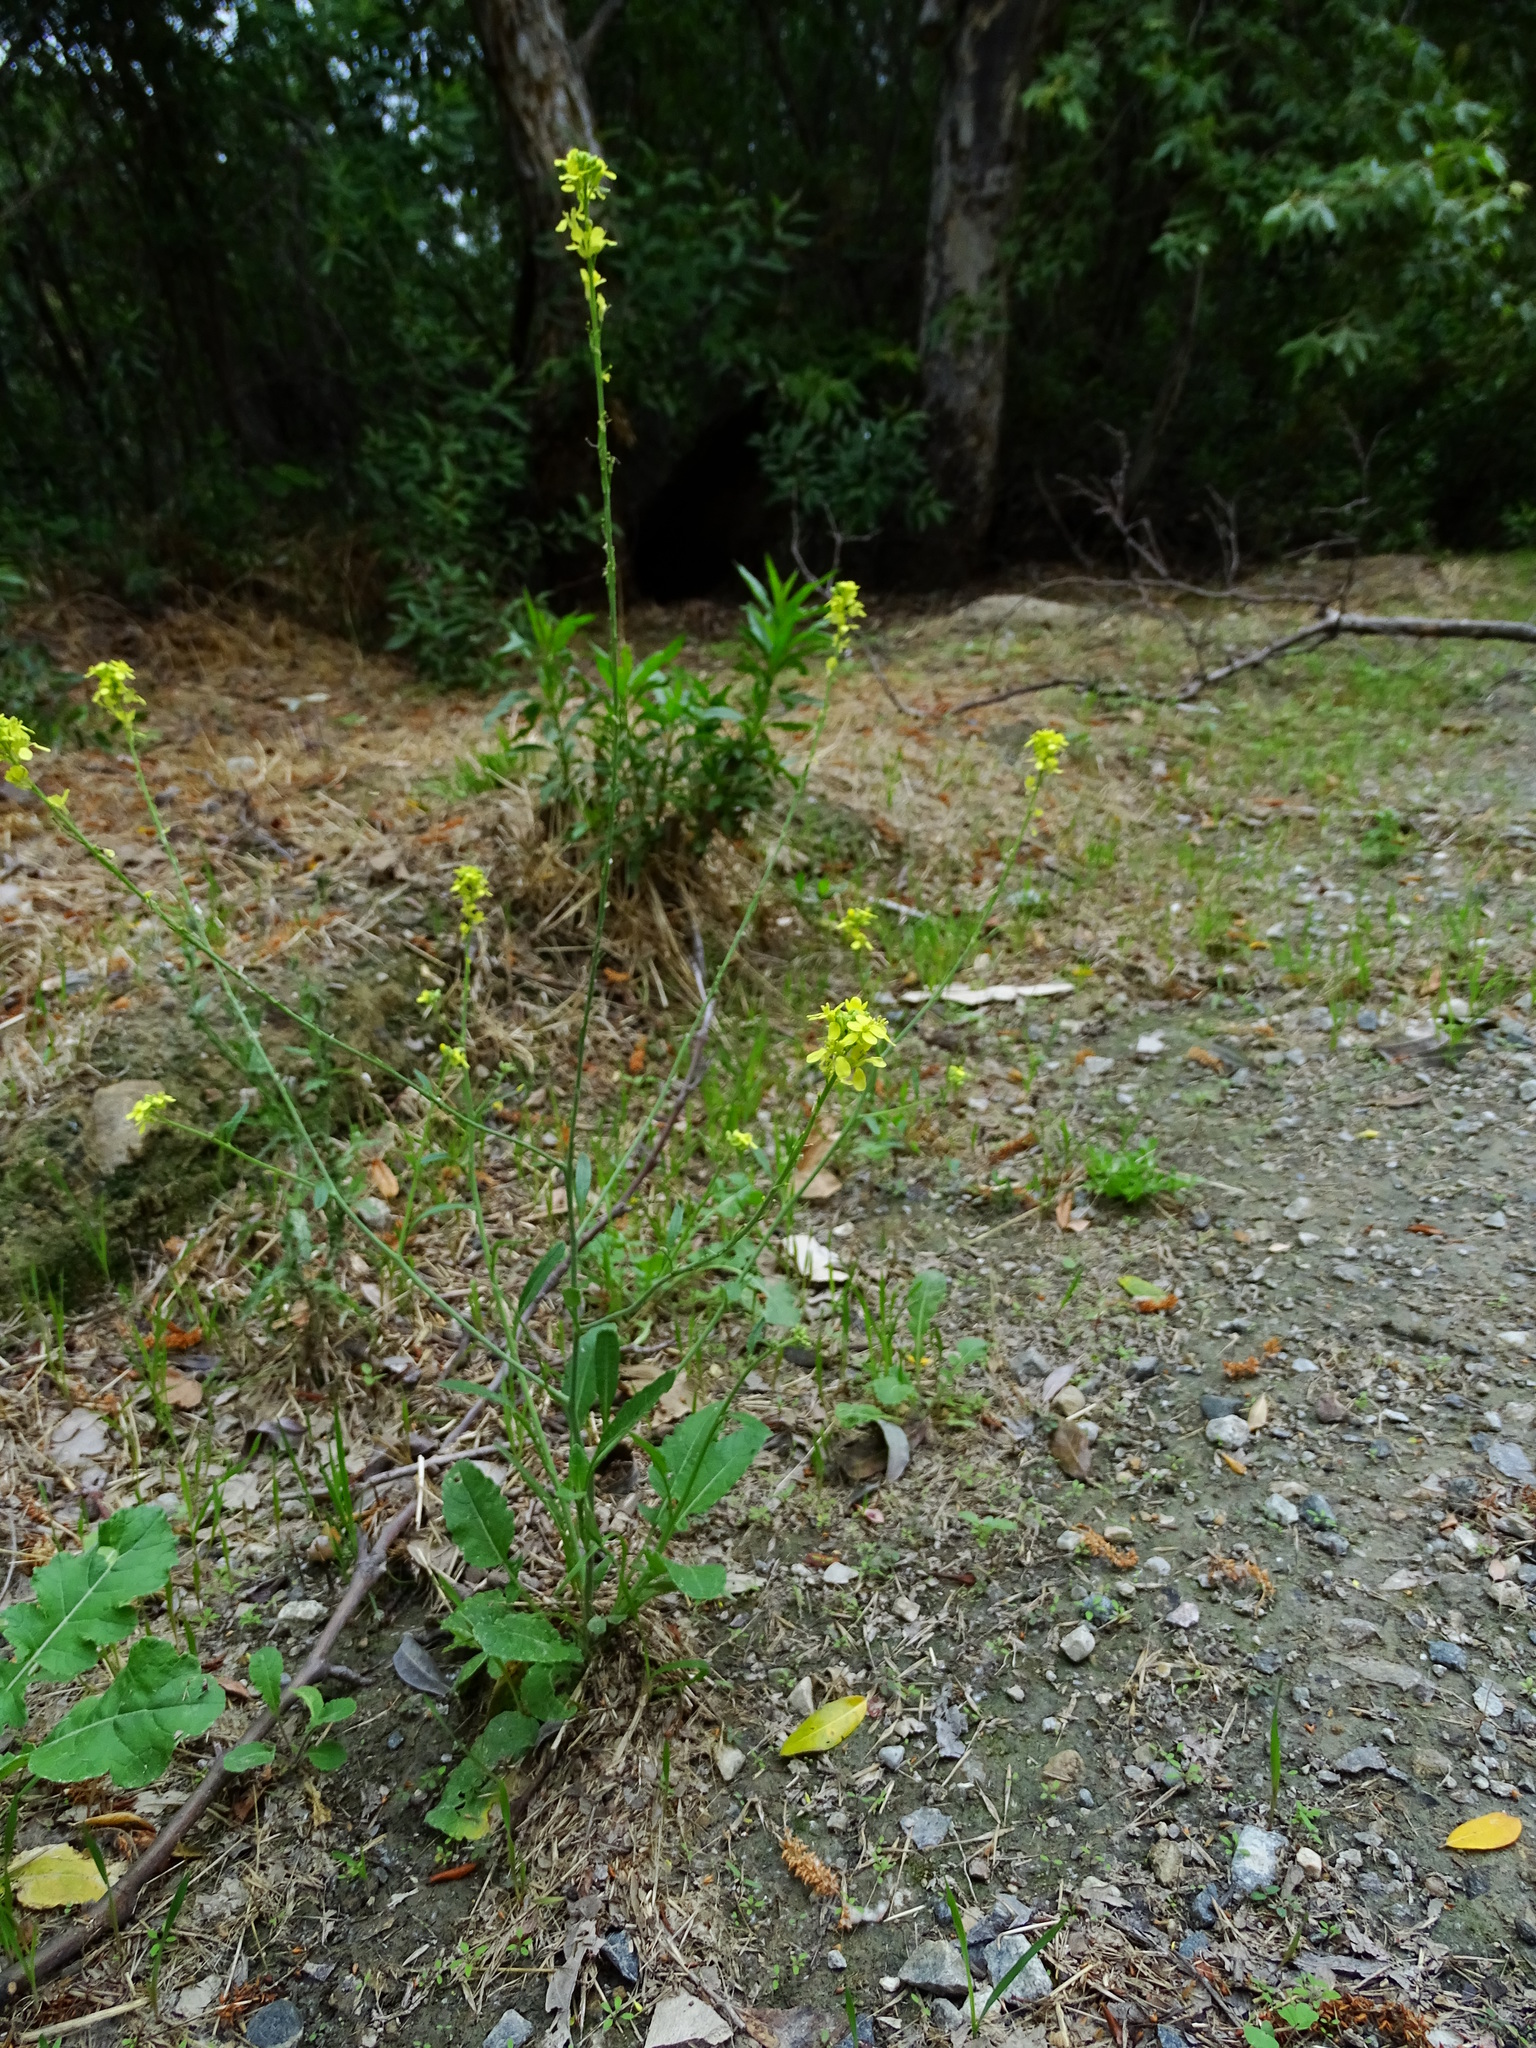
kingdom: Plantae
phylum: Tracheophyta
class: Magnoliopsida
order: Brassicales
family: Brassicaceae
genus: Hirschfeldia
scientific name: Hirschfeldia incana
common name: Hoary mustard
